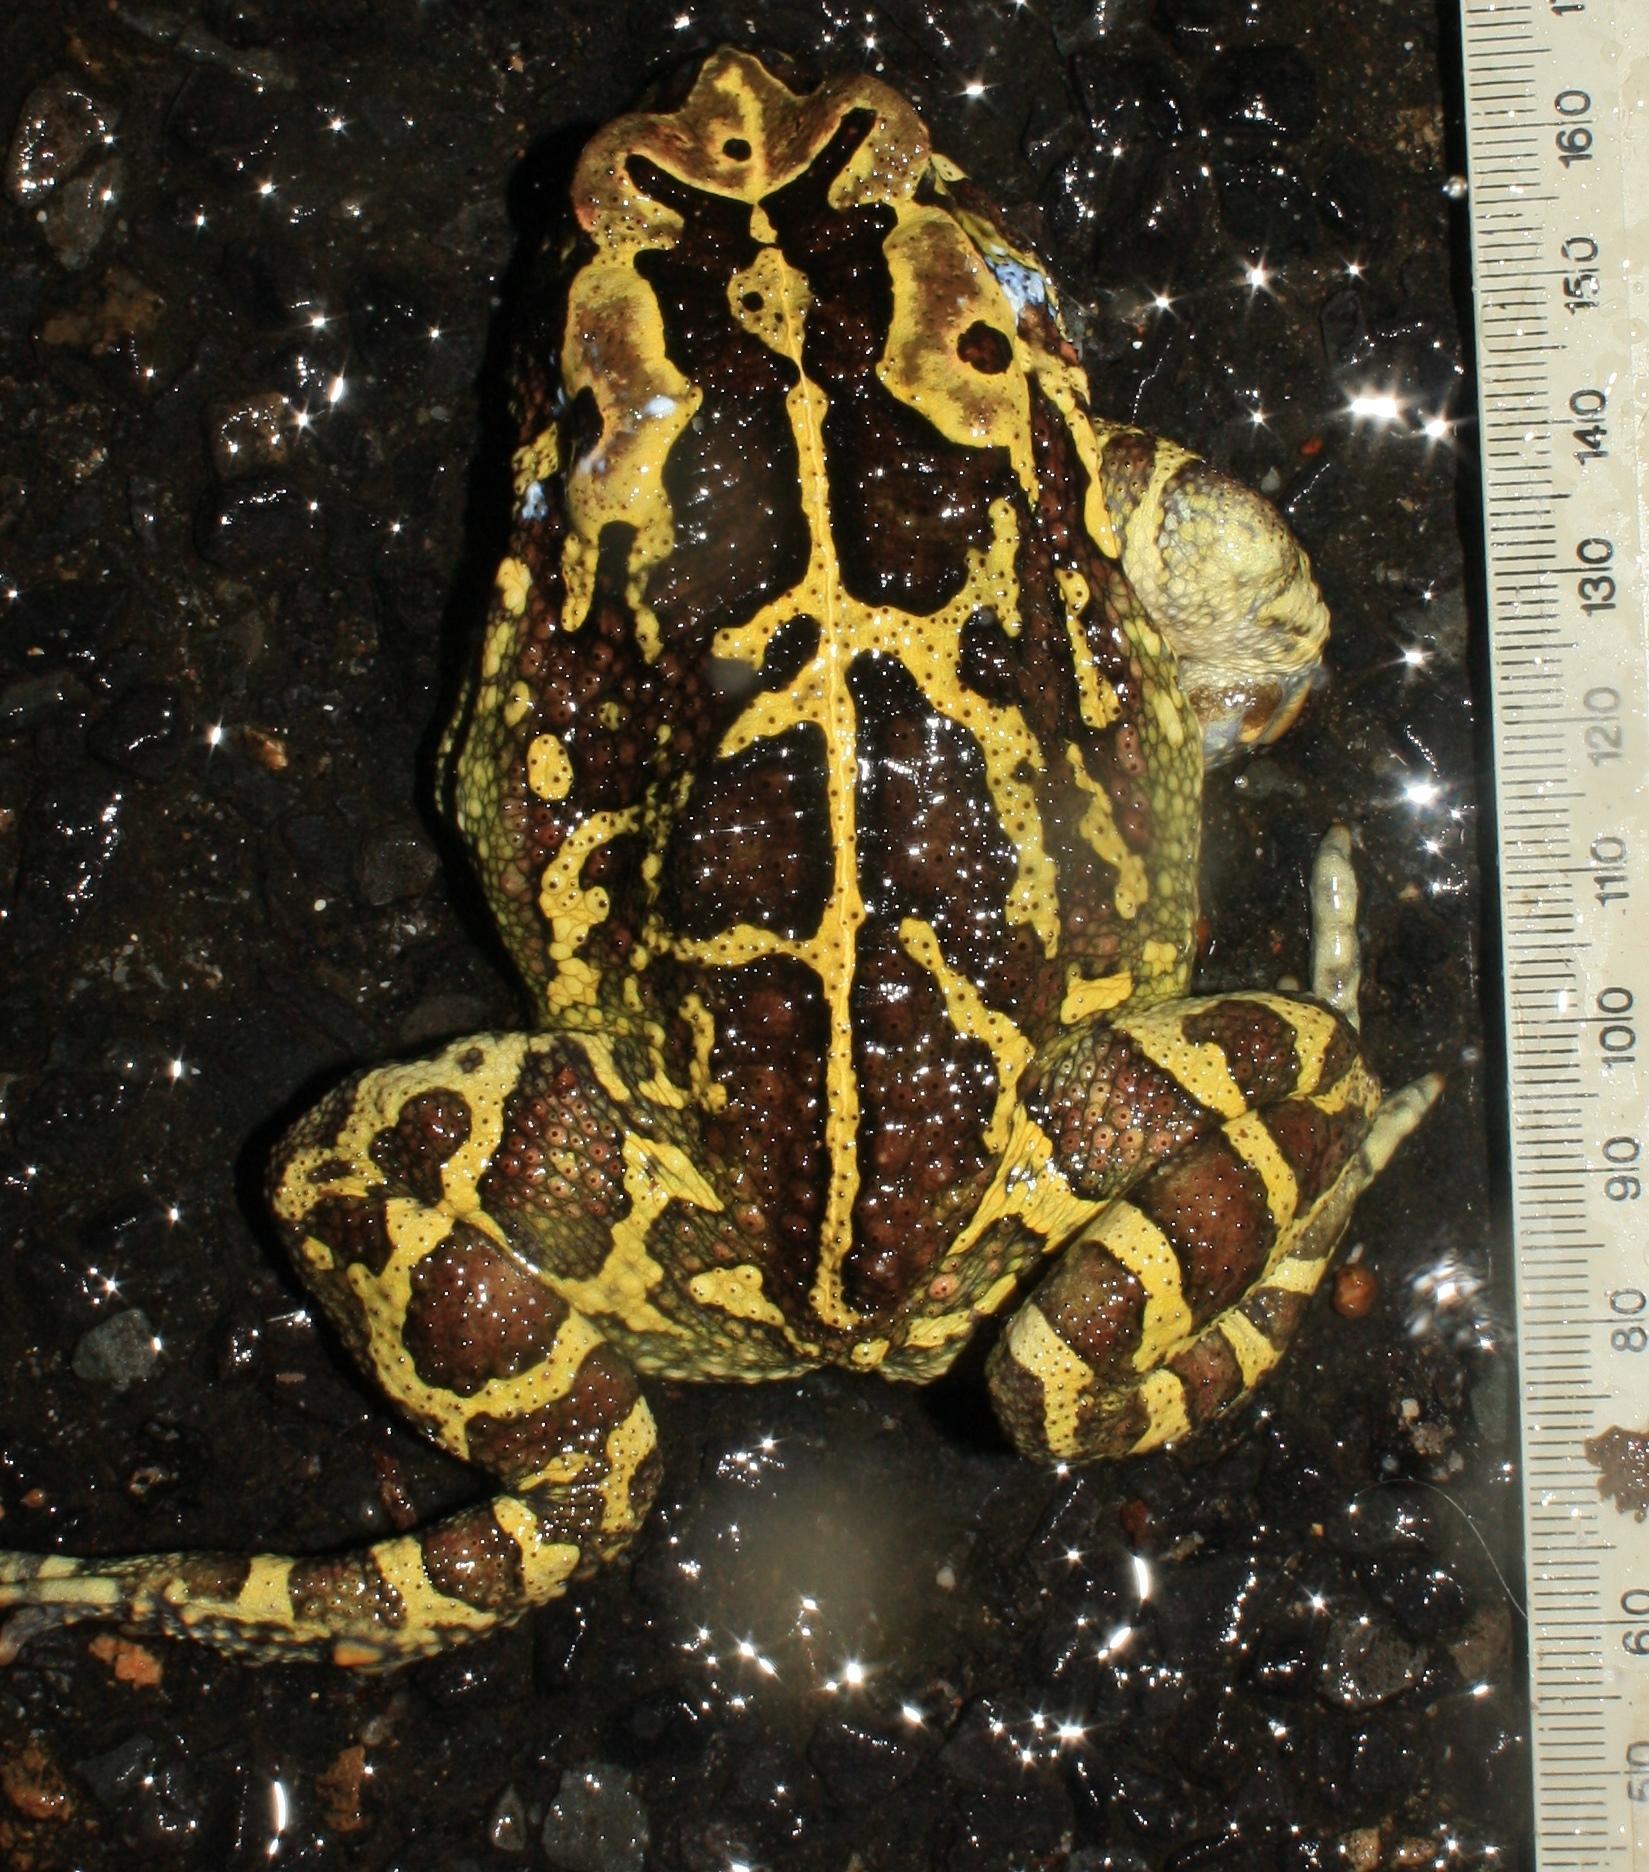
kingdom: Animalia
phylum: Chordata
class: Amphibia
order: Anura
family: Bufonidae
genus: Sclerophrys
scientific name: Sclerophrys pantherina
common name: Panther toad
